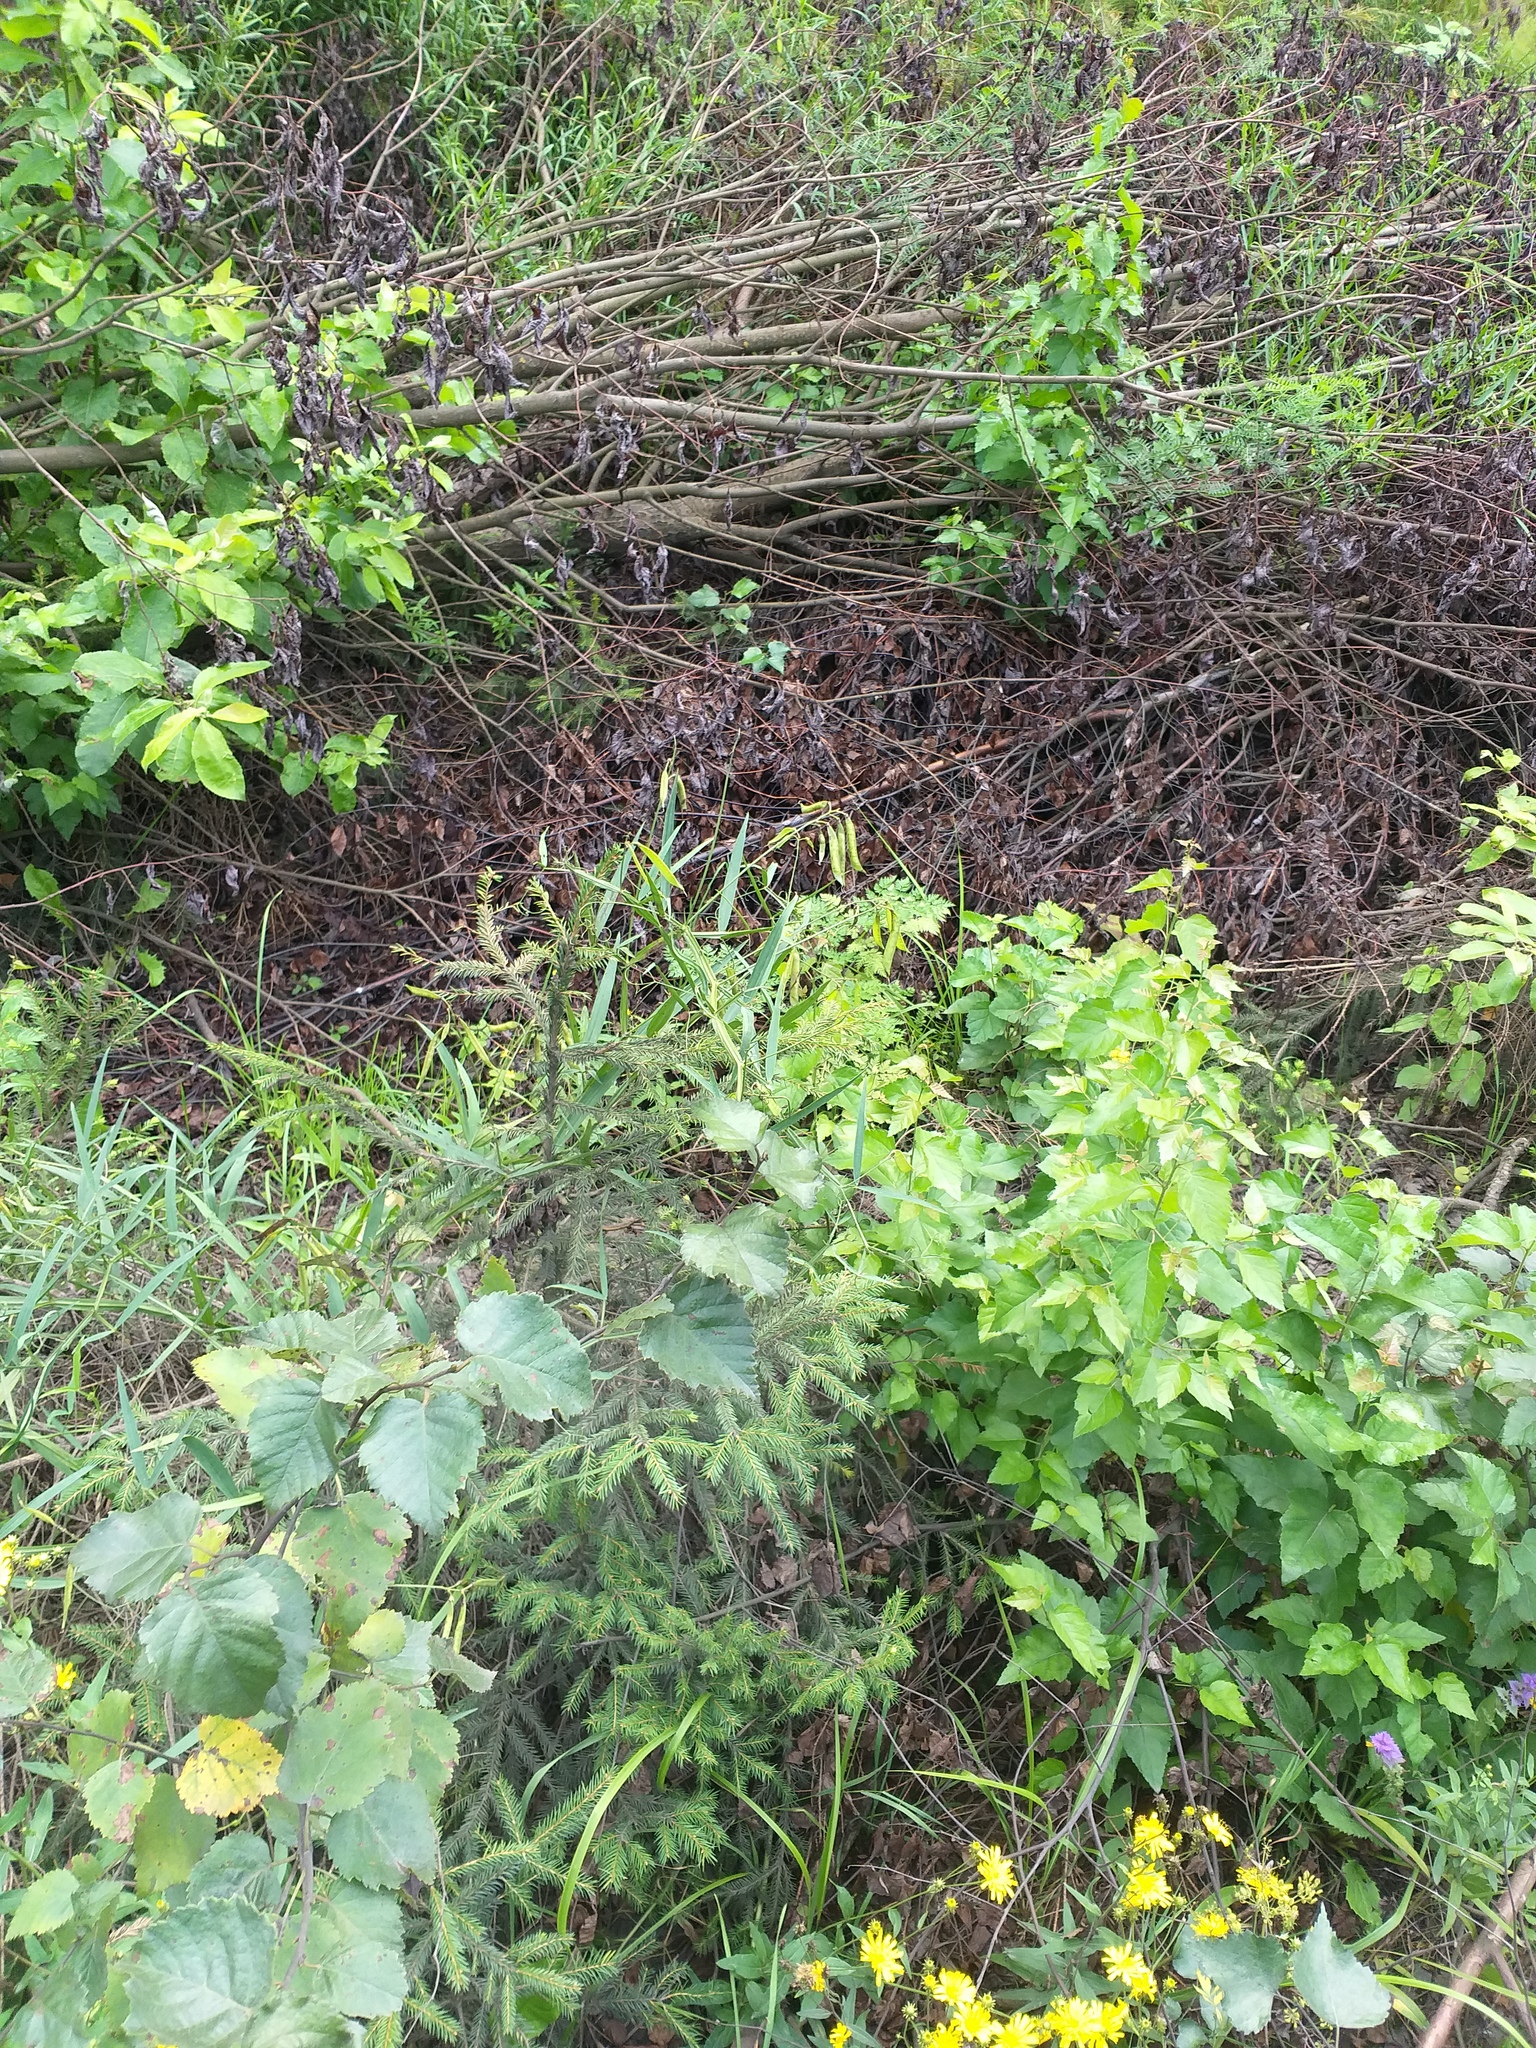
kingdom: Plantae
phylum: Tracheophyta
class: Magnoliopsida
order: Fagales
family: Betulaceae
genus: Betula
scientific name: Betula pubescens
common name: Downy birch
